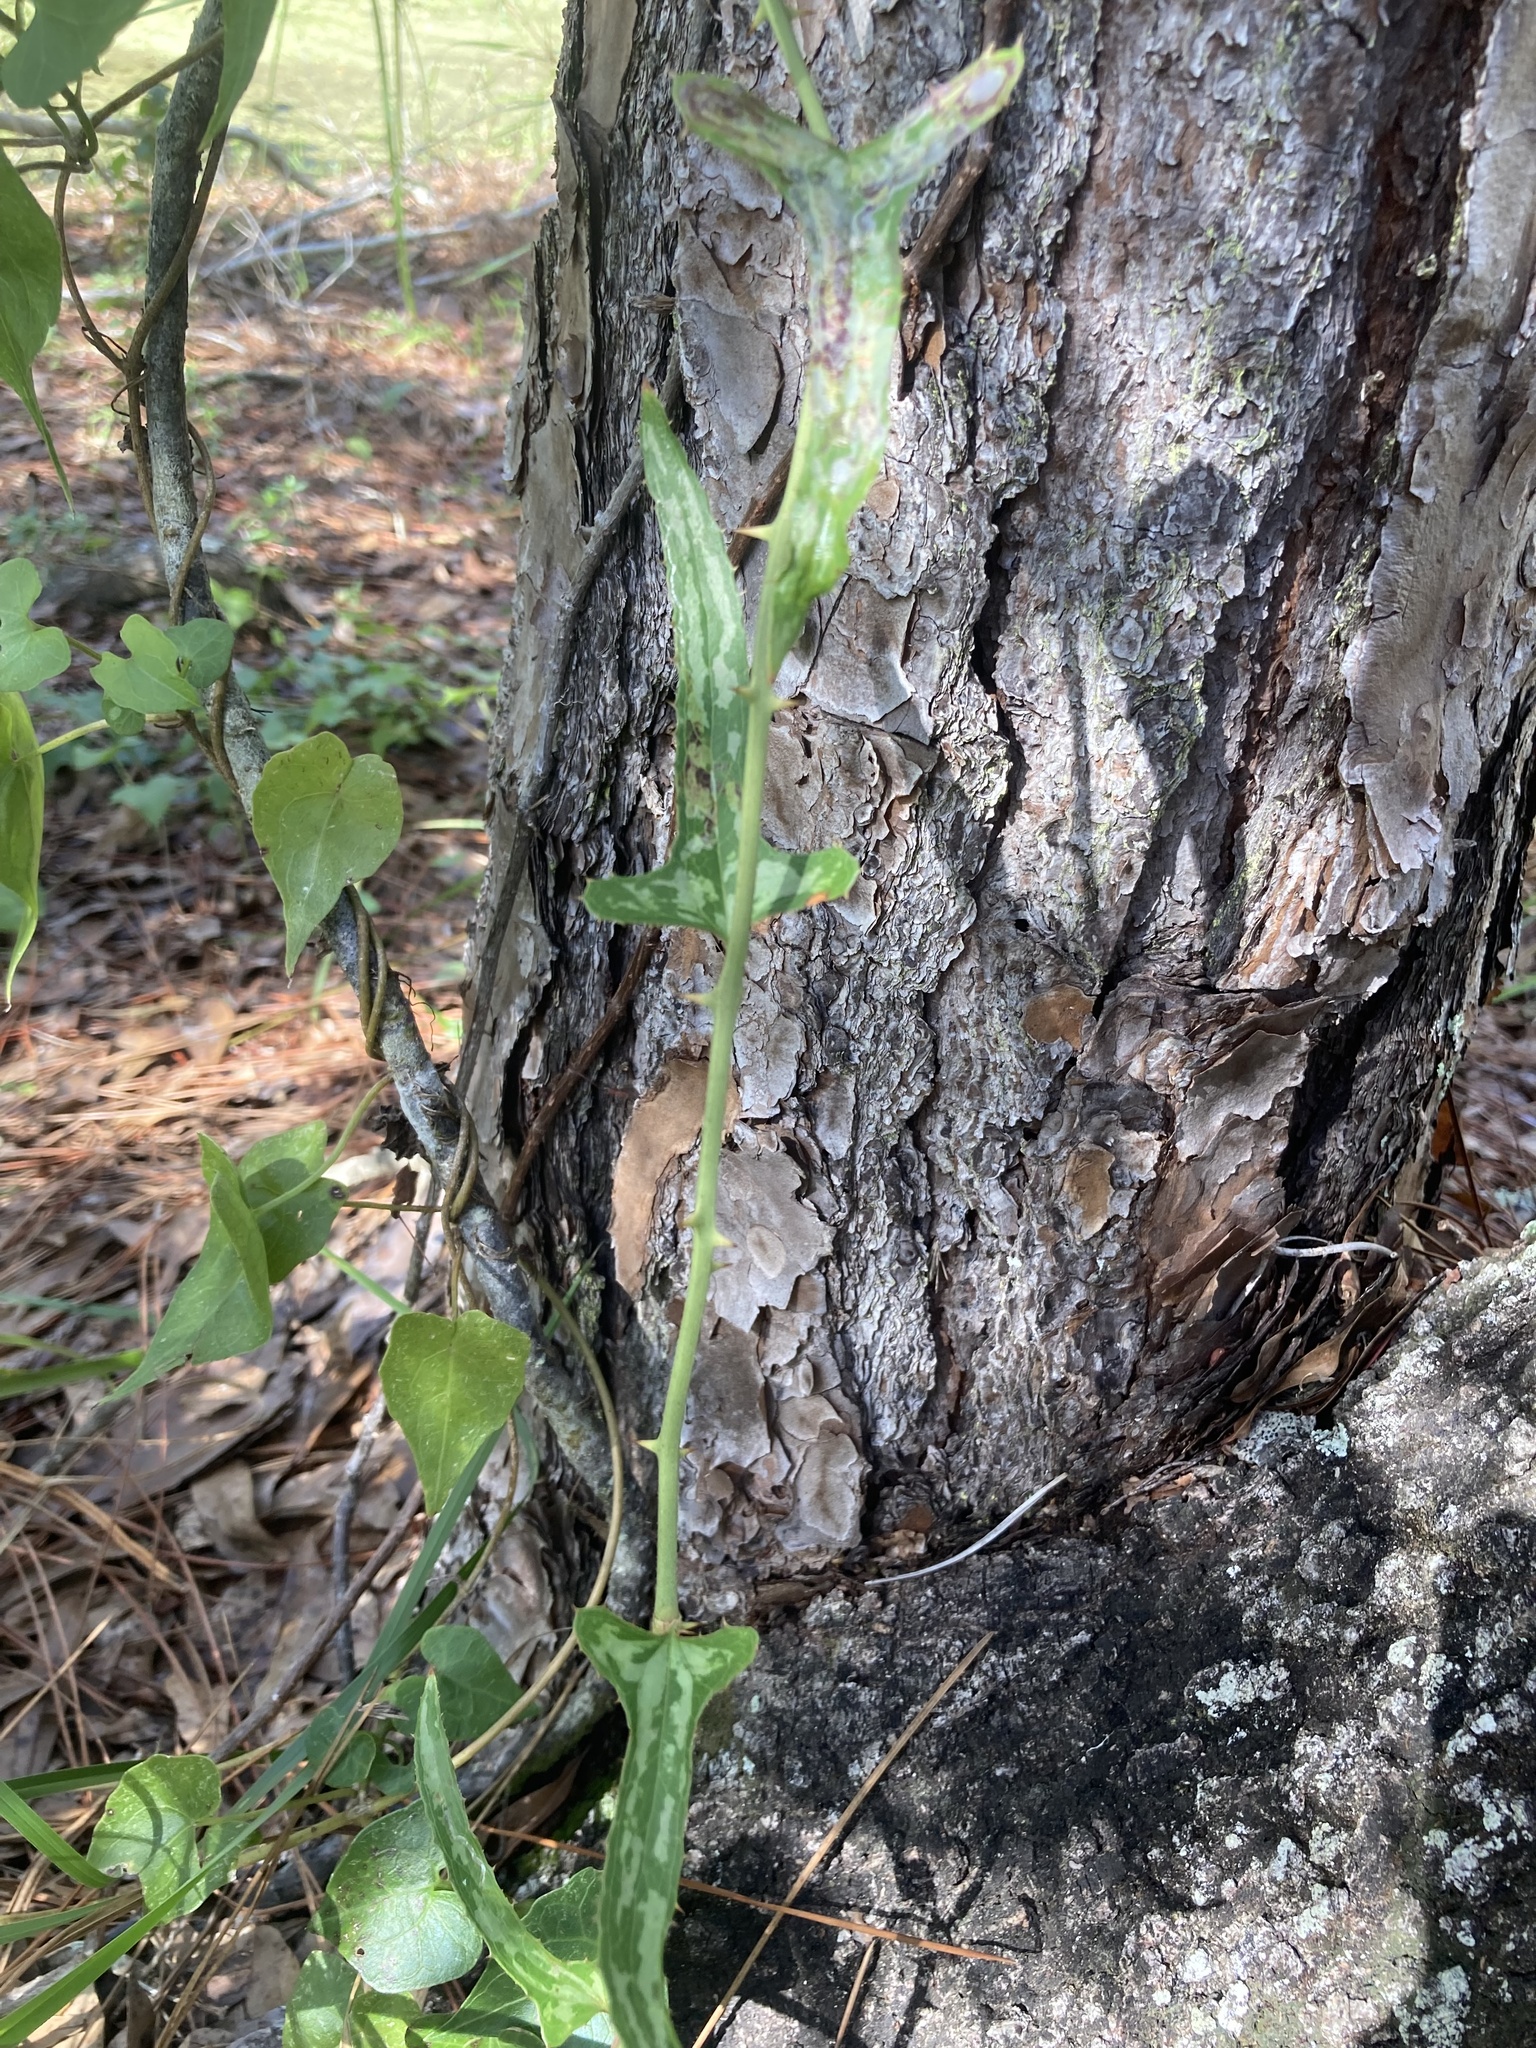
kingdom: Plantae
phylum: Tracheophyta
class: Liliopsida
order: Liliales
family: Smilacaceae
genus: Smilax
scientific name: Smilax bona-nox
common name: Catbrier
